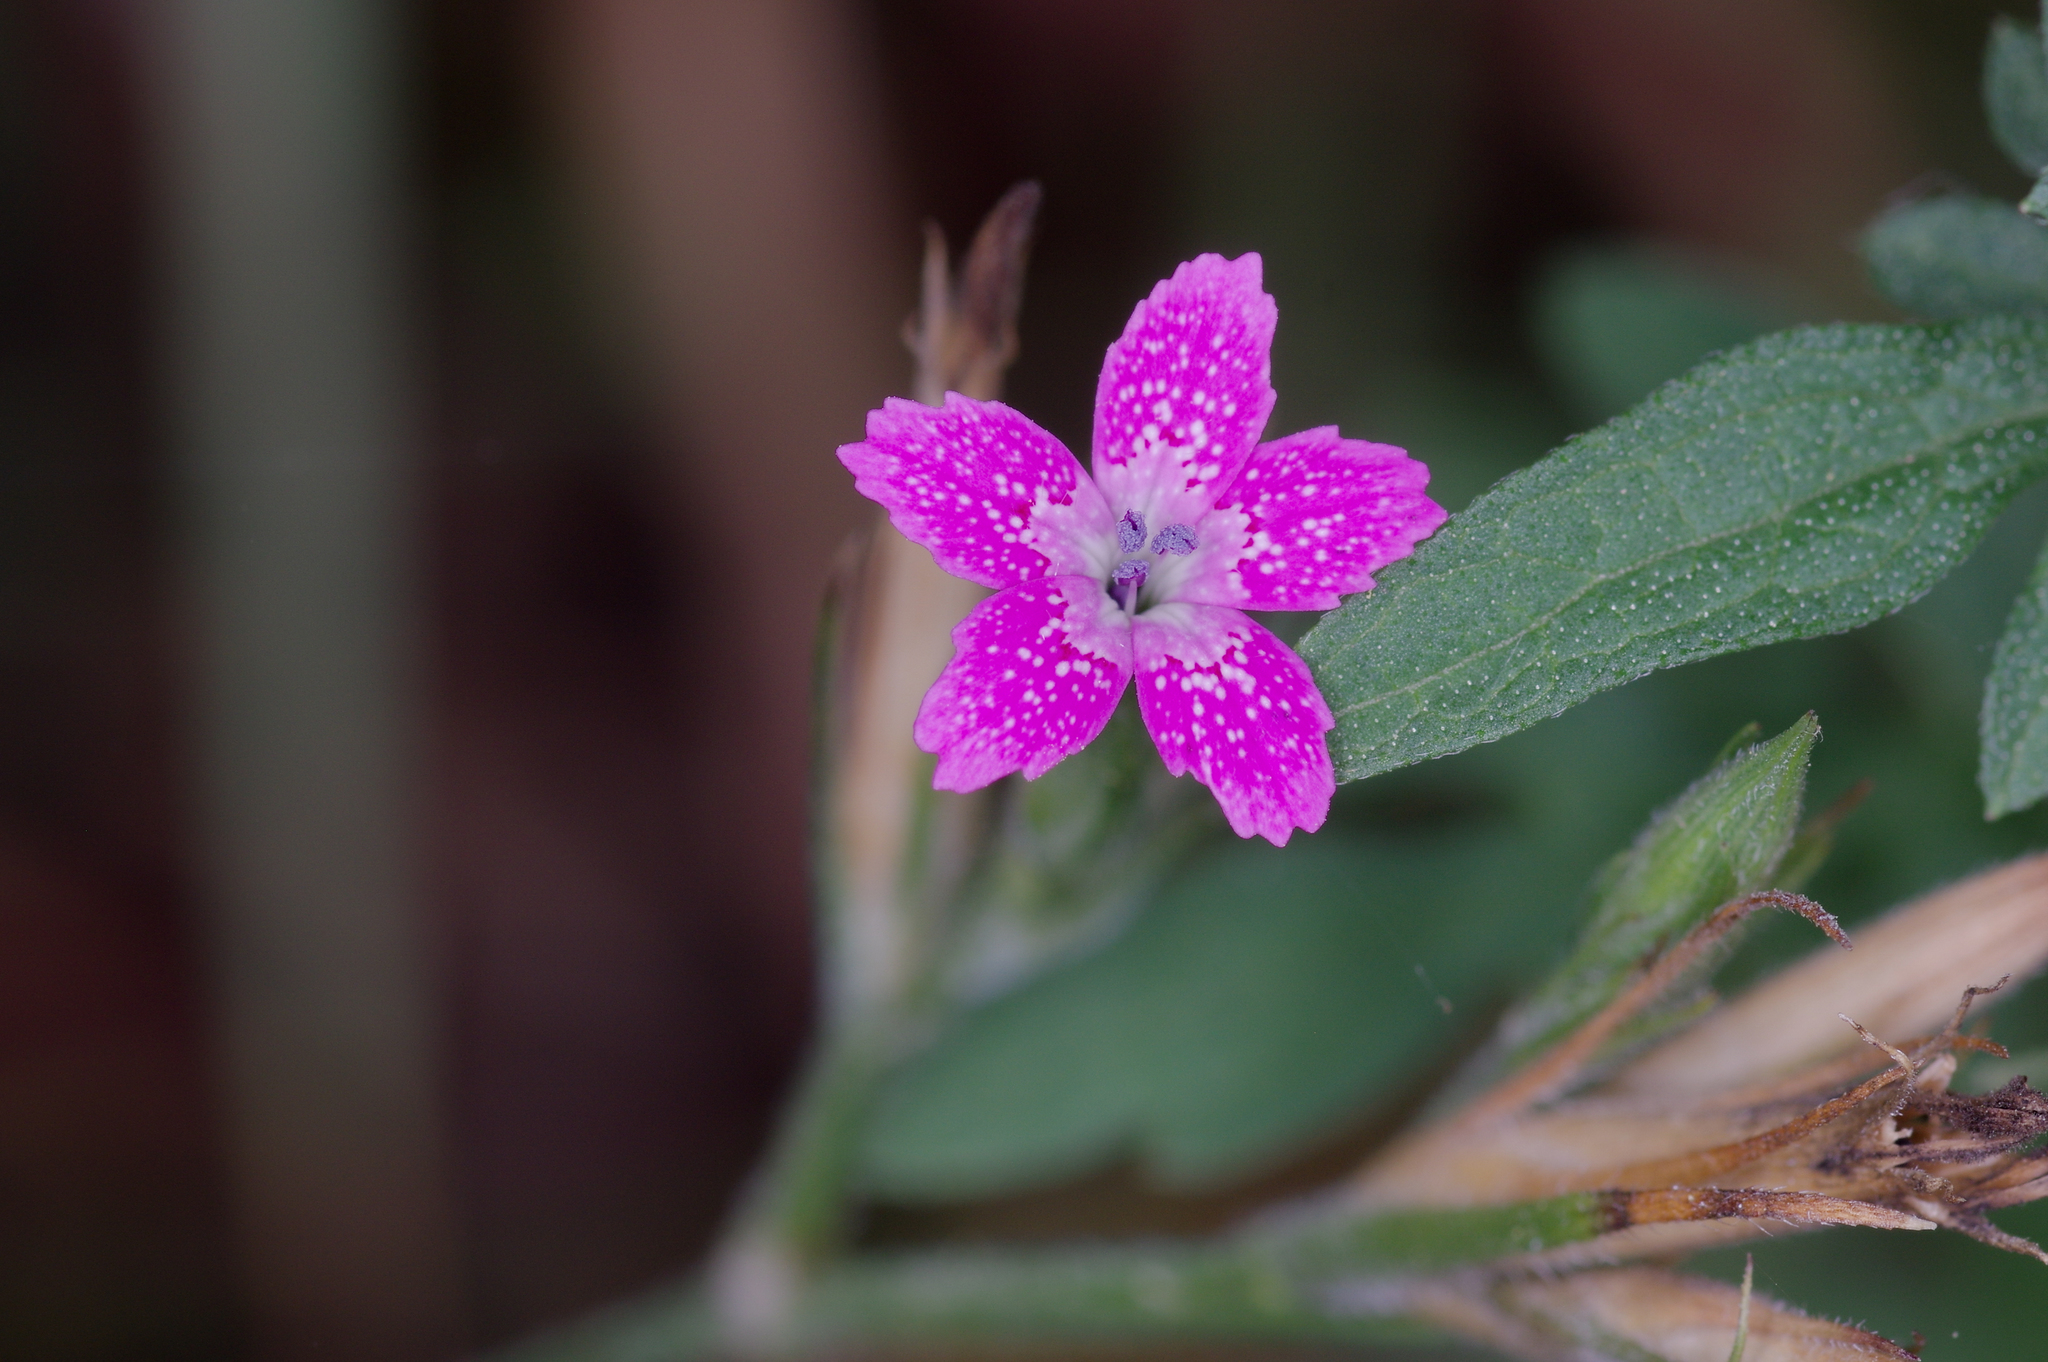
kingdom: Plantae
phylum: Tracheophyta
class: Magnoliopsida
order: Caryophyllales
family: Caryophyllaceae
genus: Dianthus
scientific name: Dianthus armeria
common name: Deptford pink
